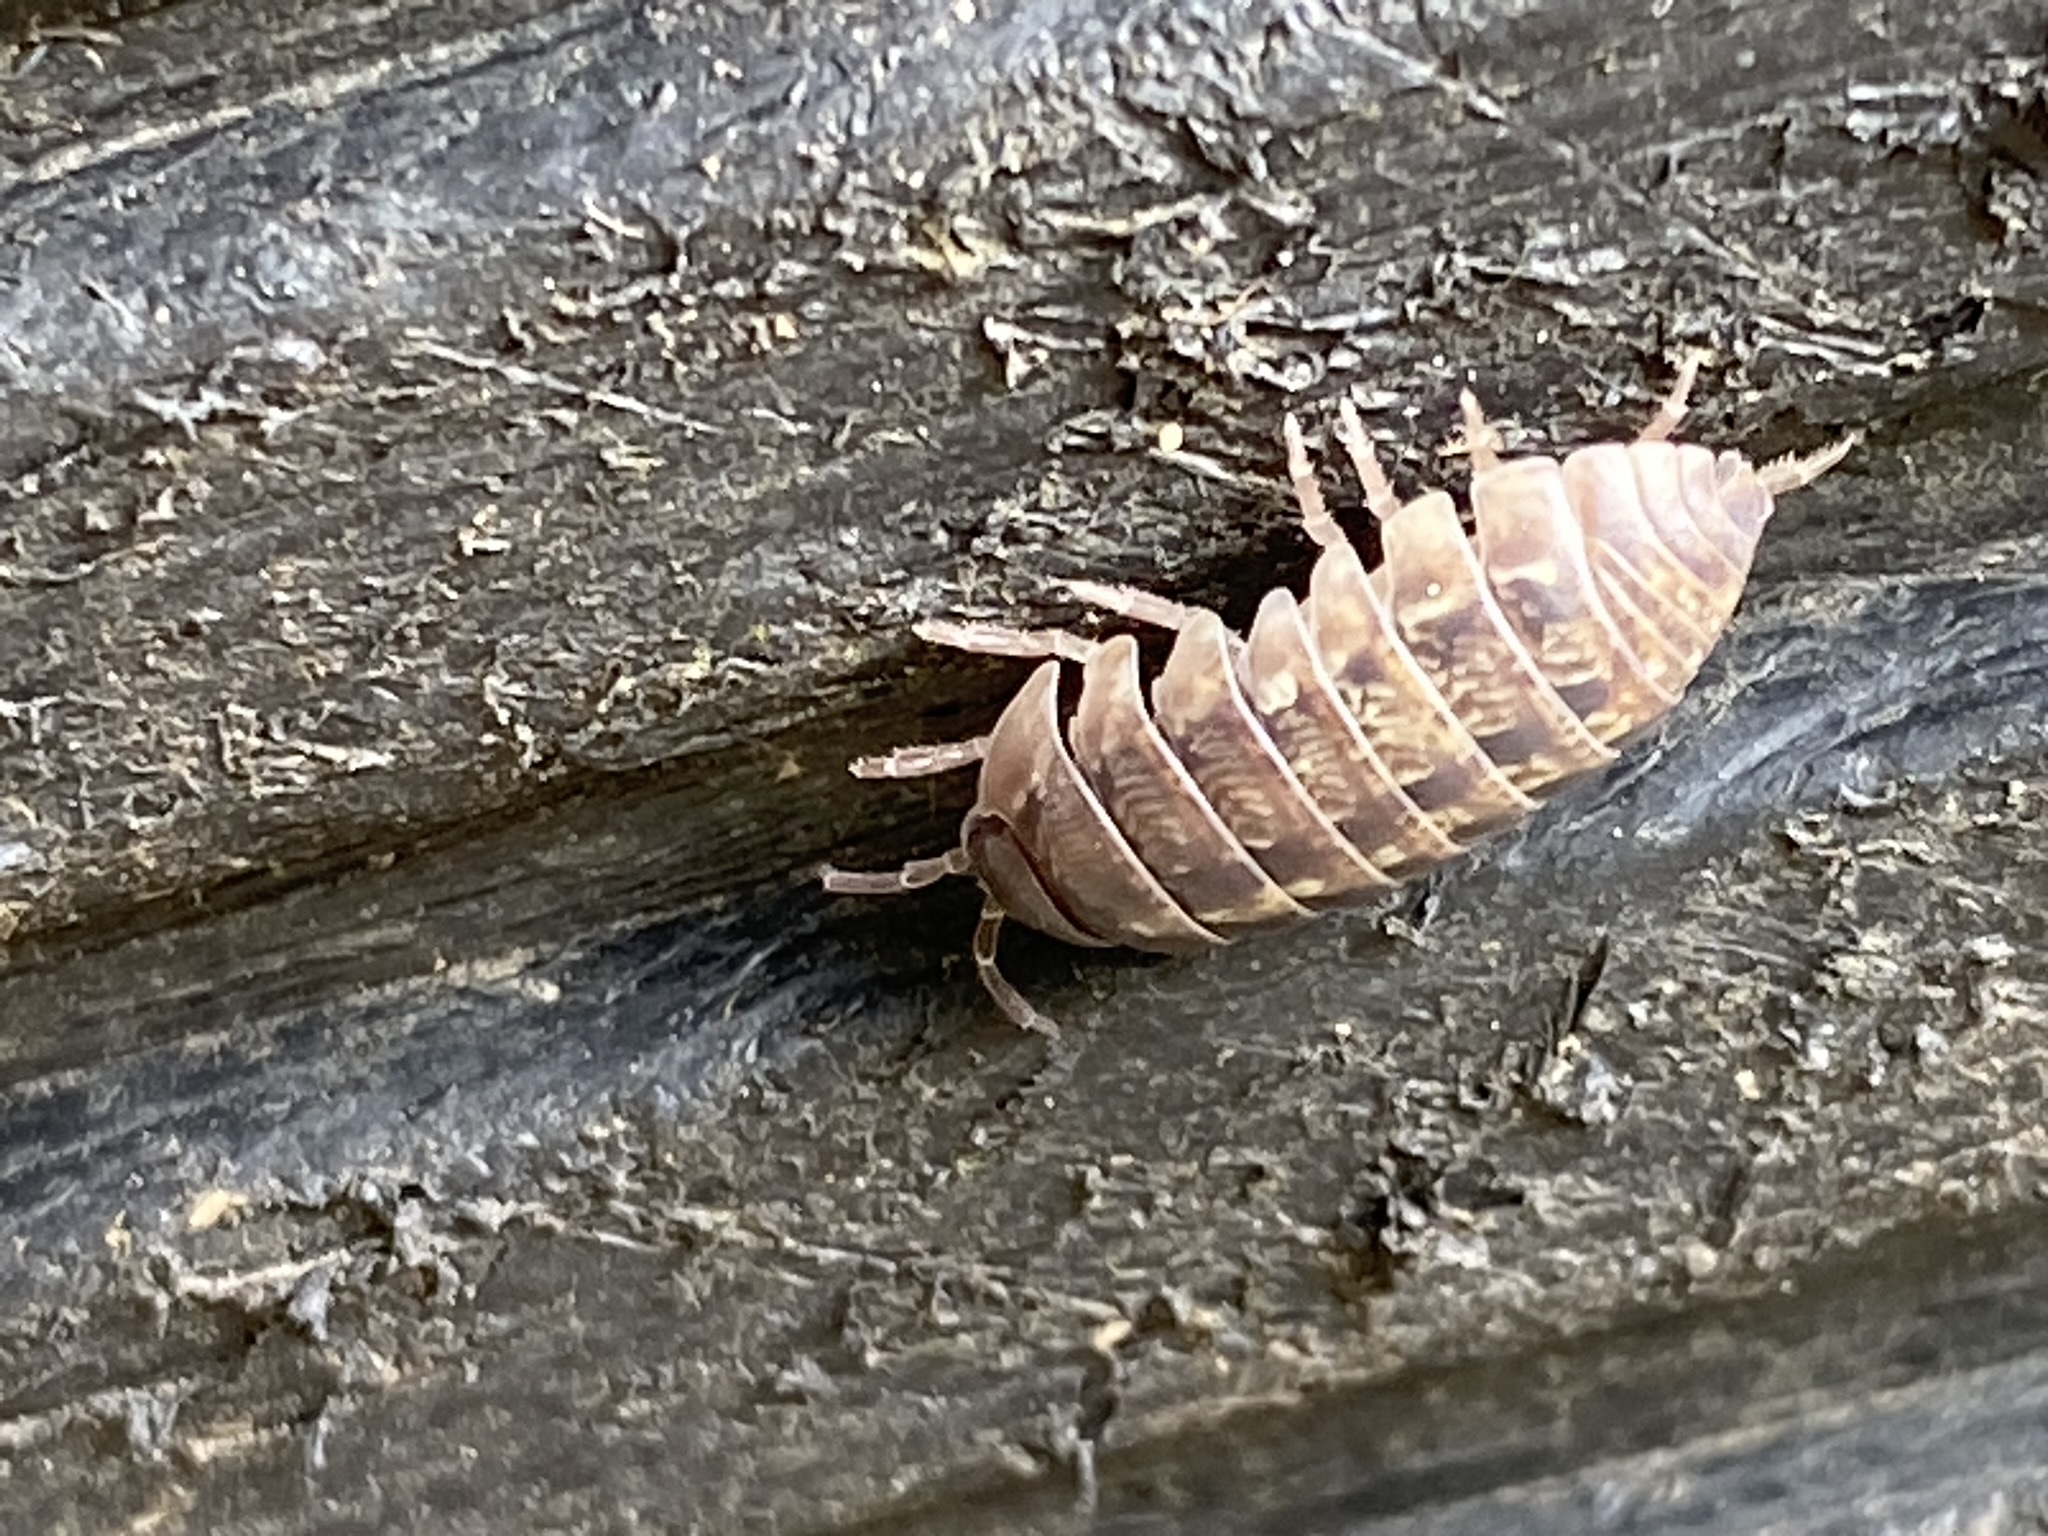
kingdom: Animalia
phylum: Arthropoda
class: Malacostraca
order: Isopoda
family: Armadillidiidae
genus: Armadillidium
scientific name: Armadillidium vulgare
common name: Common pill woodlouse
